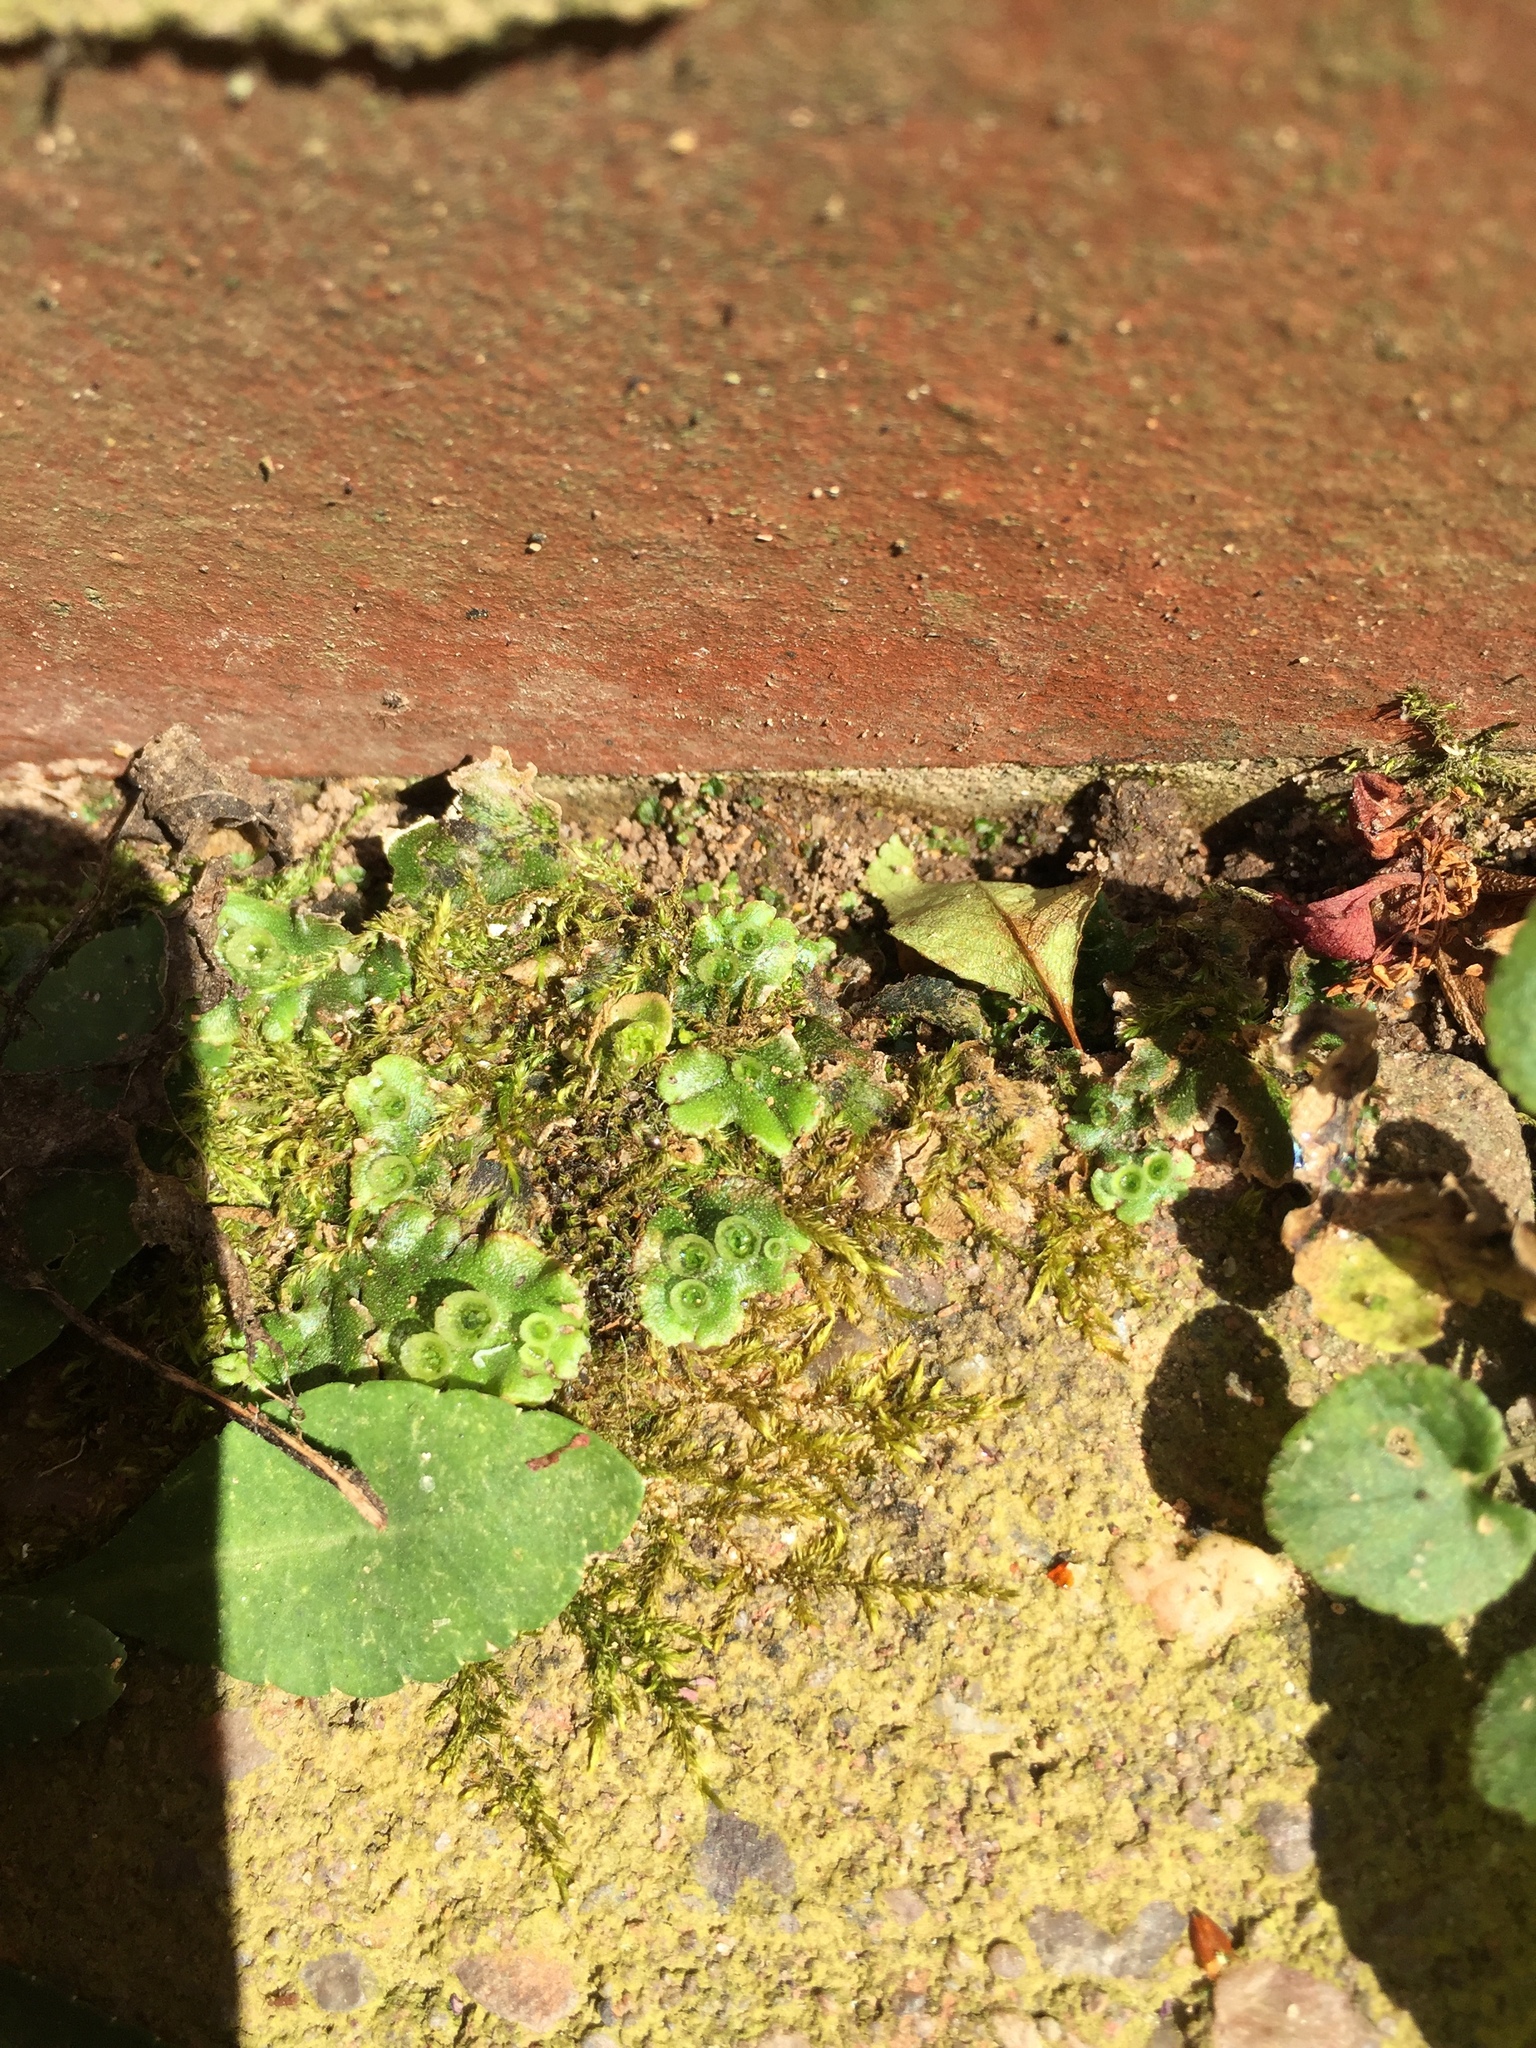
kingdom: Plantae
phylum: Marchantiophyta
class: Marchantiopsida
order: Marchantiales
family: Marchantiaceae
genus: Marchantia
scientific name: Marchantia polymorpha
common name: Common liverwort
